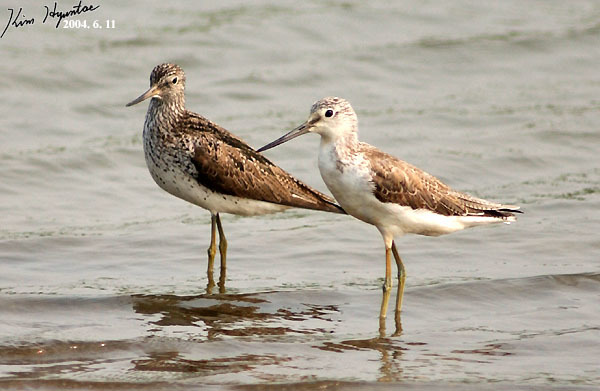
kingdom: Animalia
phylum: Chordata
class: Aves
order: Charadriiformes
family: Scolopacidae
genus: Tringa
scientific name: Tringa nebularia
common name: Common greenshank
